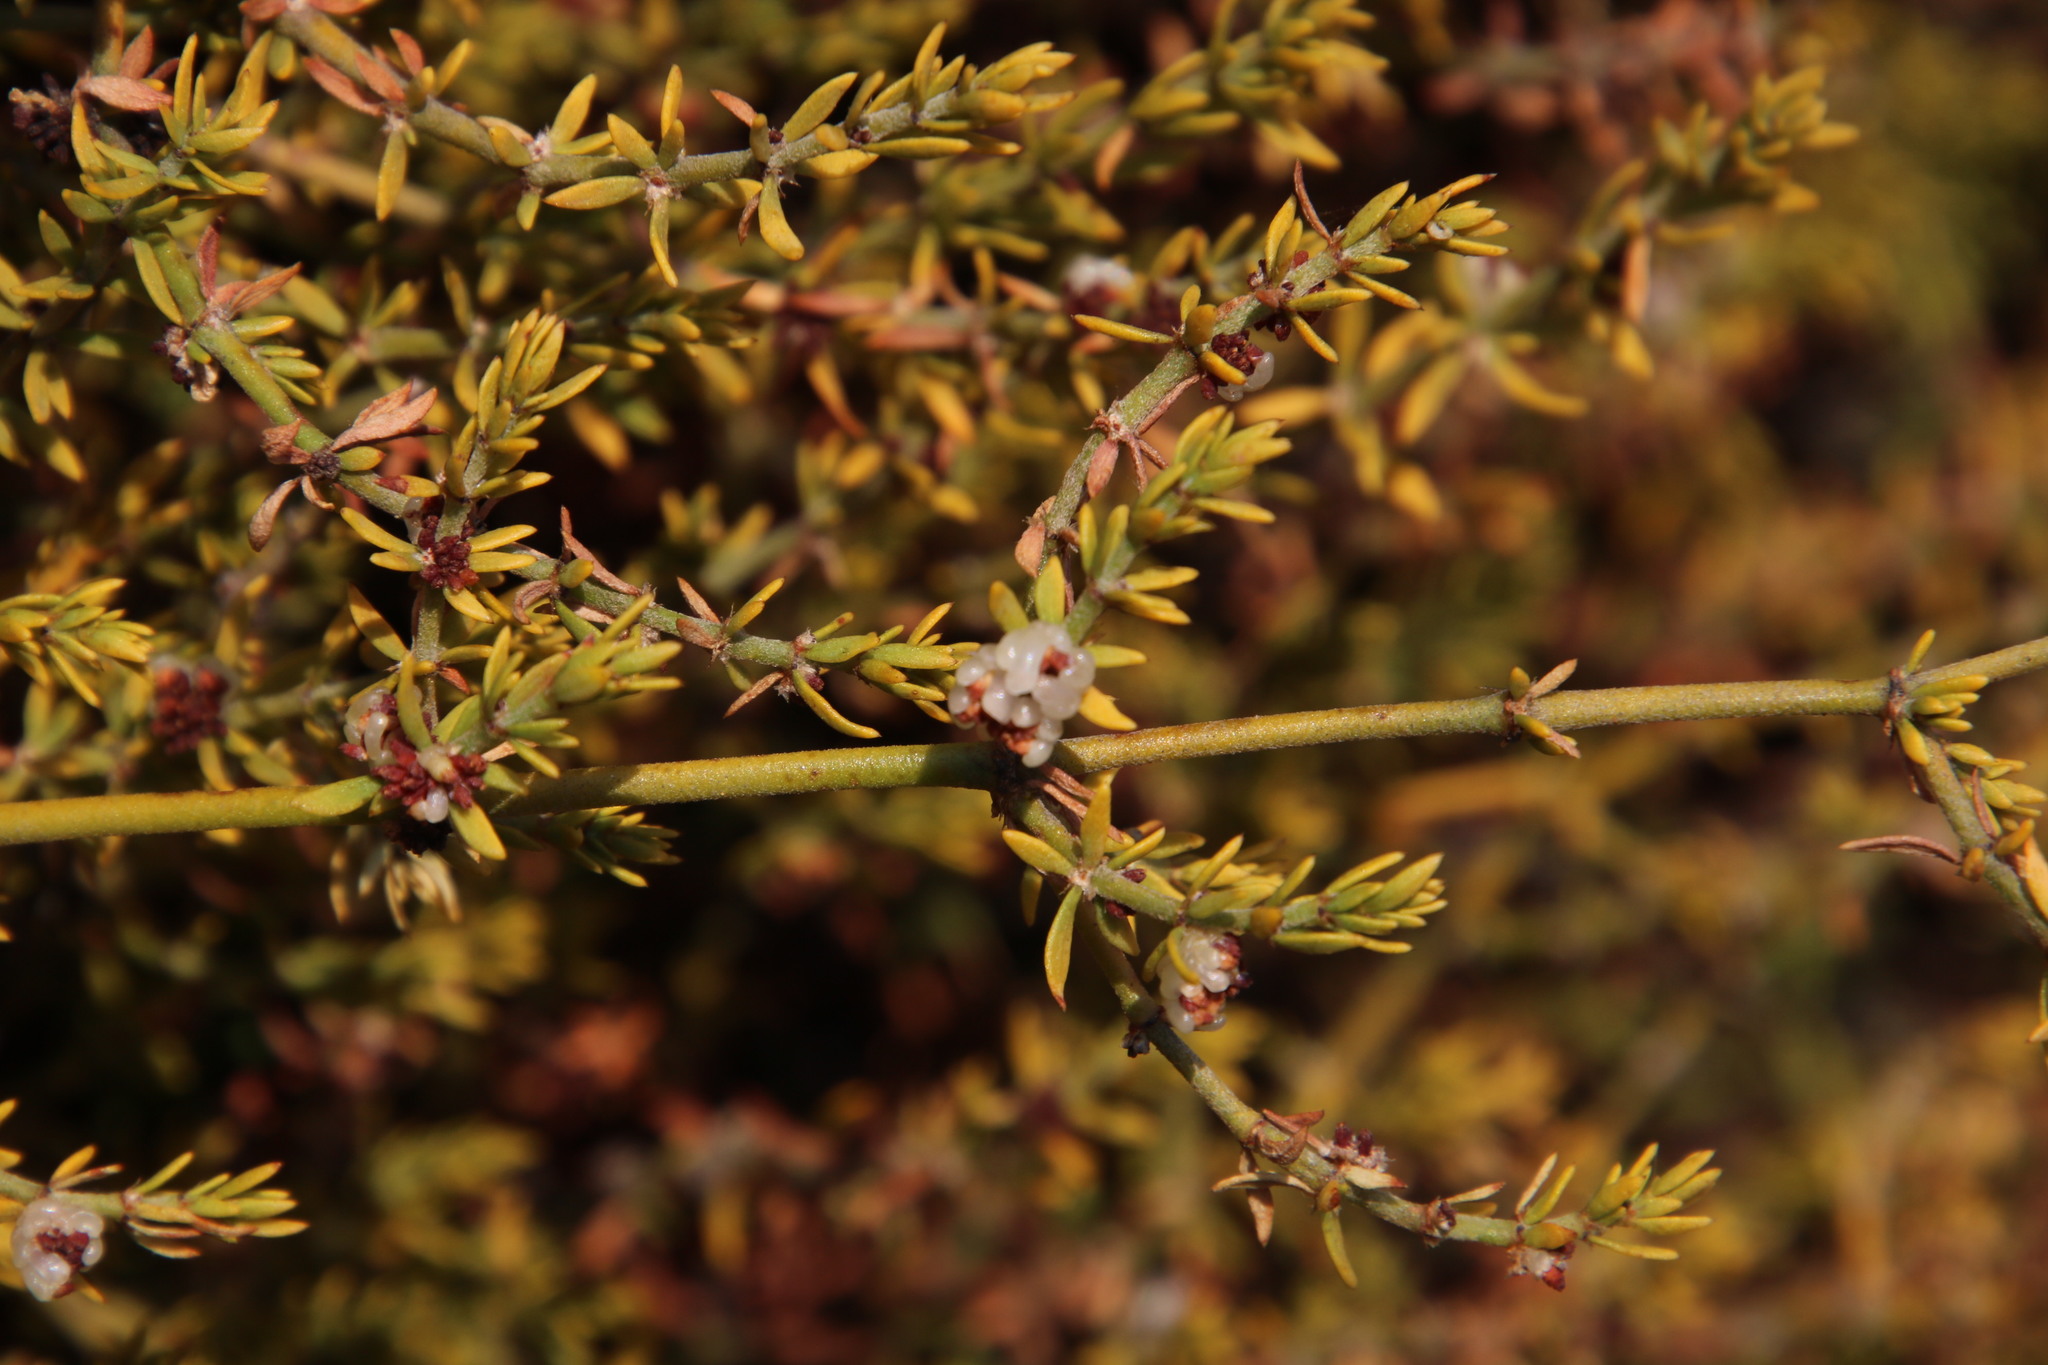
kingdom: Plantae
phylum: Tracheophyta
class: Magnoliopsida
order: Caryophyllales
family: Caryophyllaceae
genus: Pollichia
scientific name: Pollichia campestris
